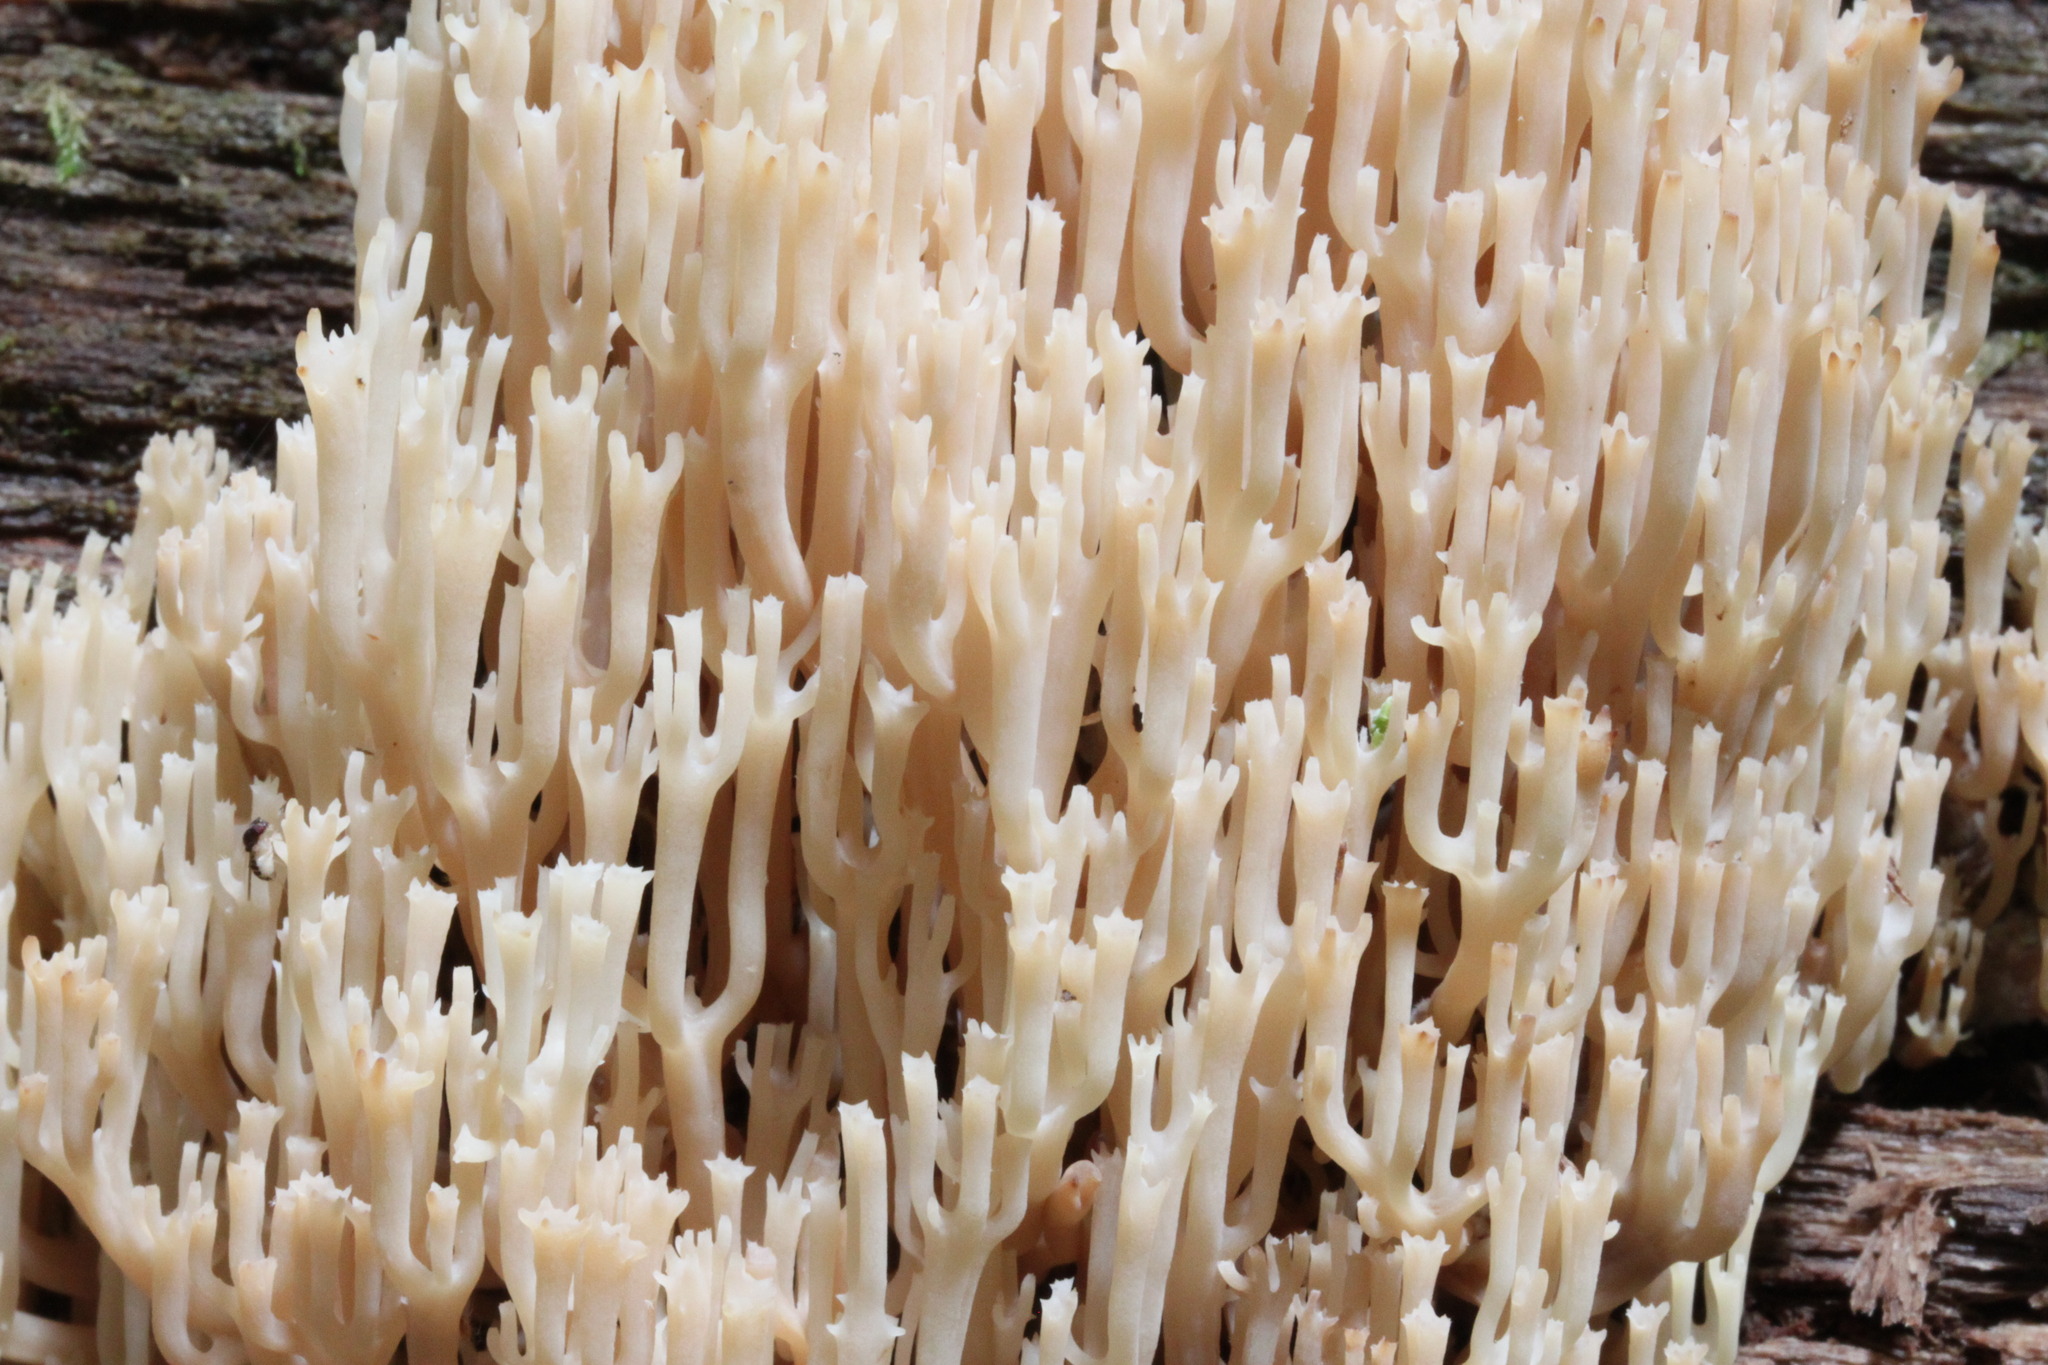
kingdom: Fungi
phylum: Basidiomycota
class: Agaricomycetes
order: Russulales
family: Auriscalpiaceae
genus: Artomyces
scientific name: Artomyces pyxidatus
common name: Crown-tipped coral fungus
